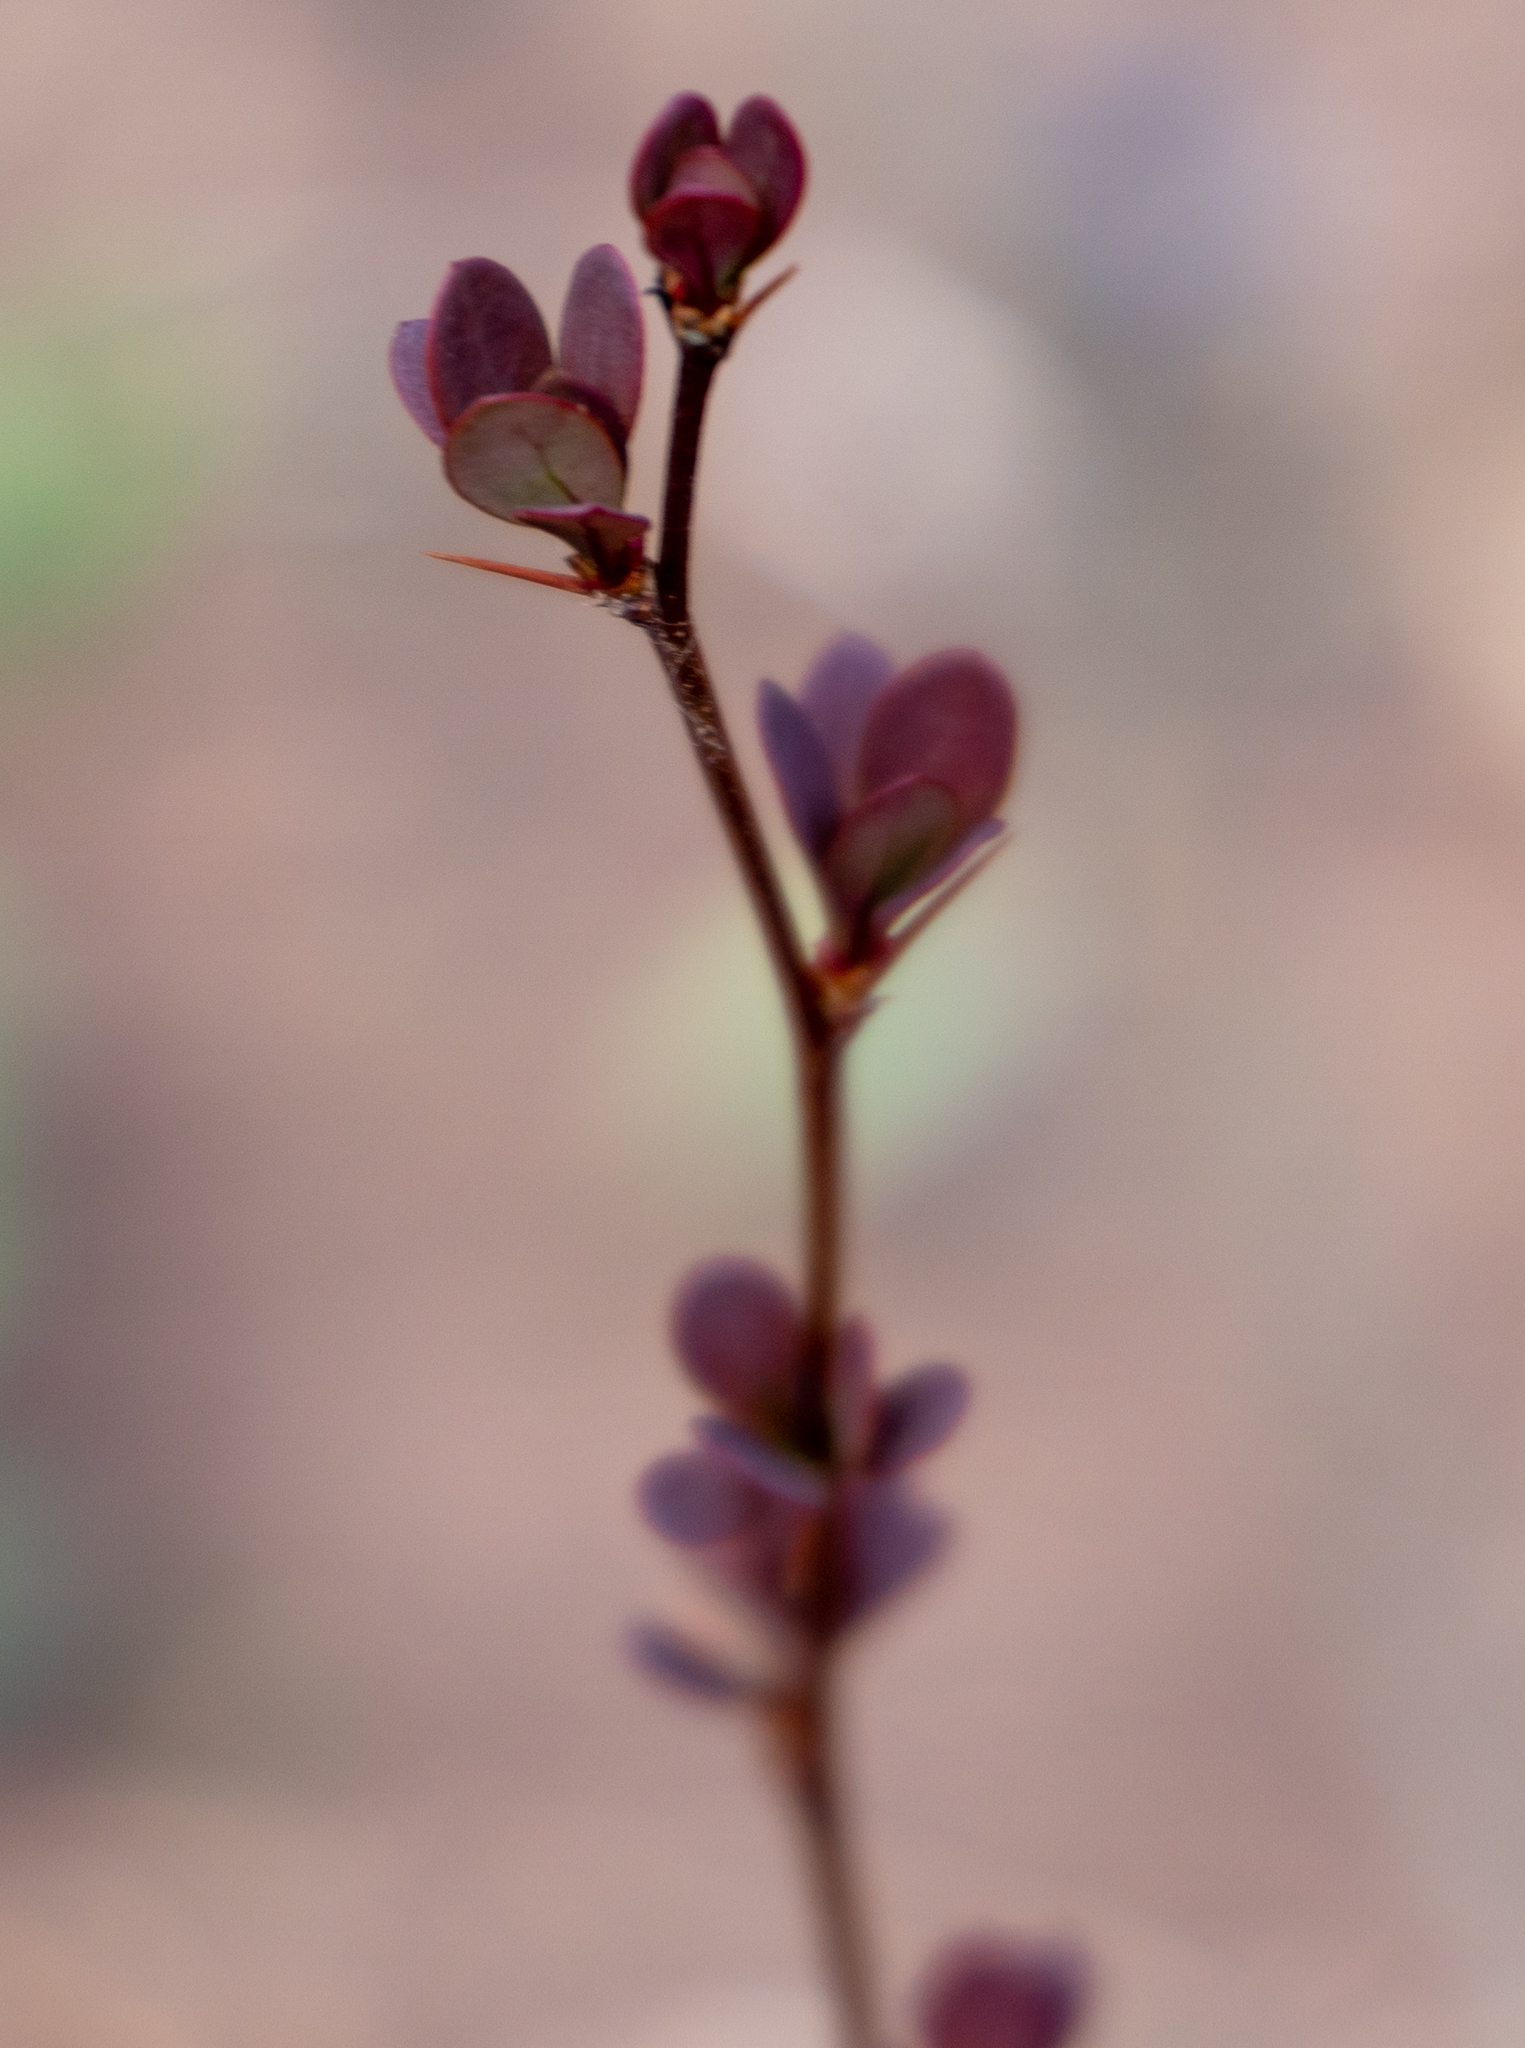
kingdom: Plantae
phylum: Tracheophyta
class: Magnoliopsida
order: Ranunculales
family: Berberidaceae
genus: Berberis
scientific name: Berberis thunbergii
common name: Japanese barberry
